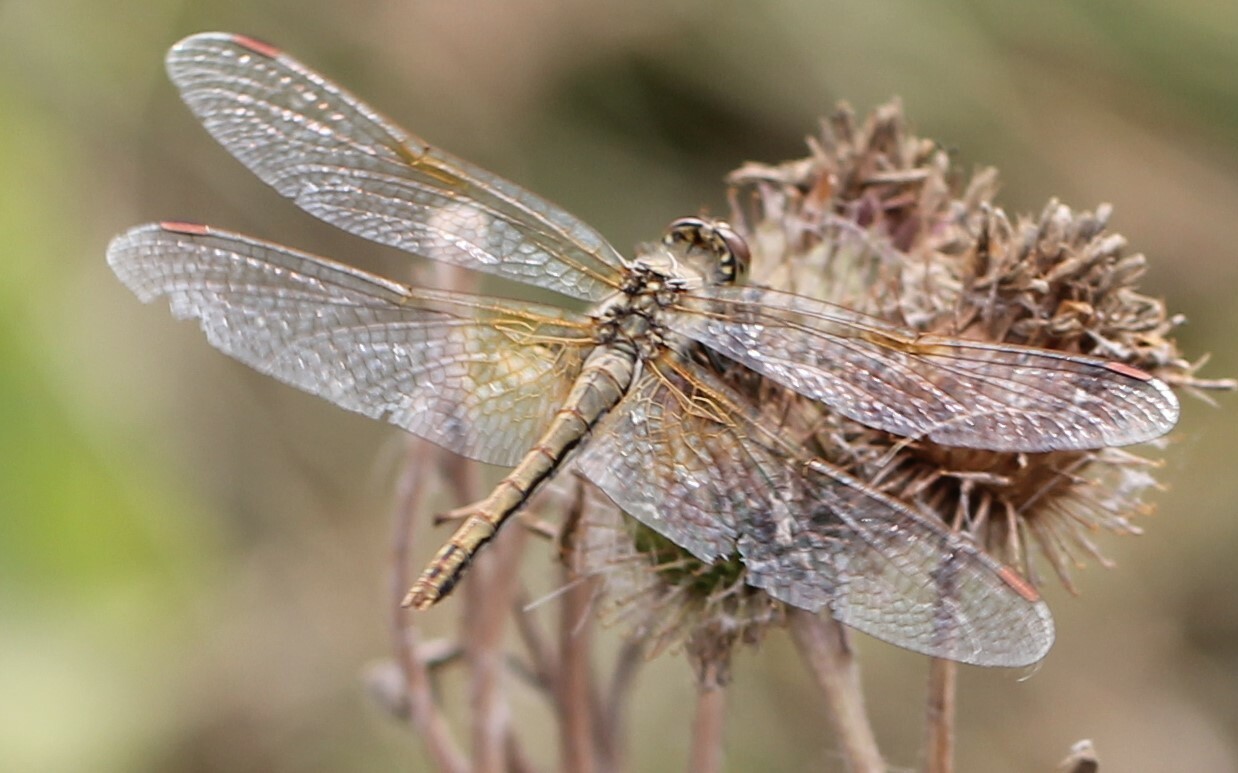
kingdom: Animalia
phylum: Arthropoda
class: Insecta
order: Odonata
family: Libellulidae
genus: Sympetrum
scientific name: Sympetrum flaveolum
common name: Yellow-winged darter
